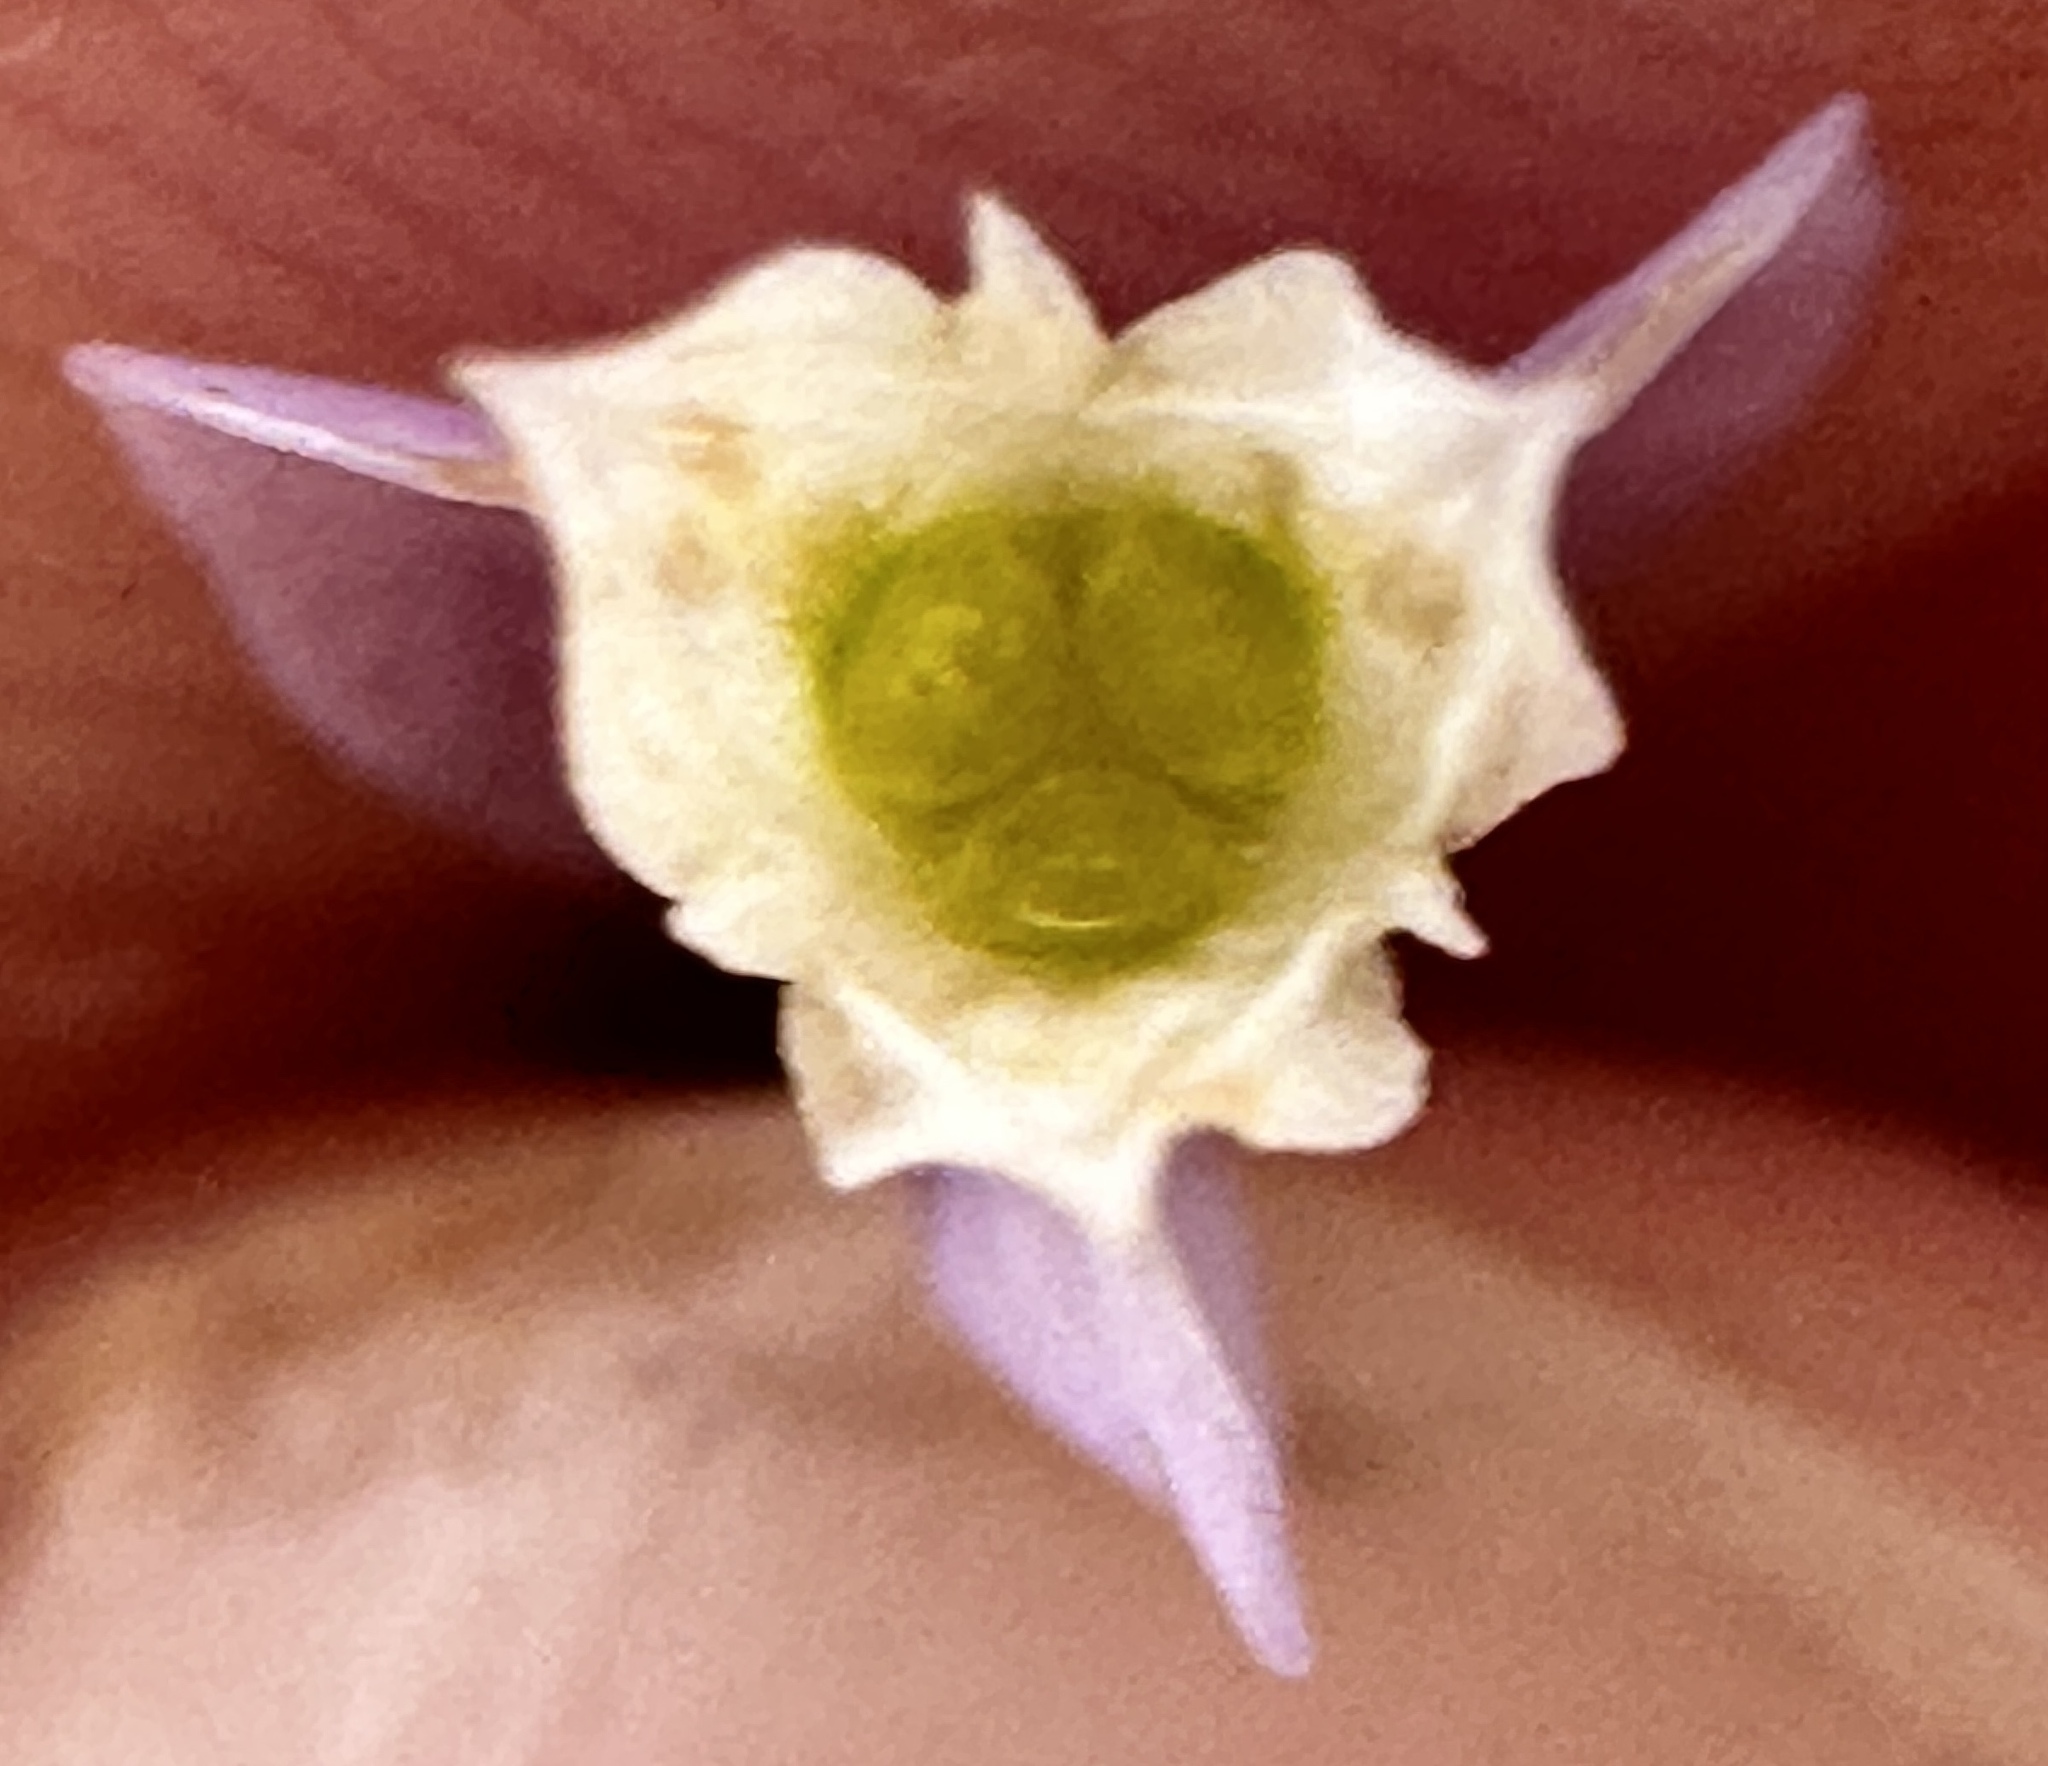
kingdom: Plantae
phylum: Tracheophyta
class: Liliopsida
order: Dioscoreales
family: Burmanniaceae
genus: Burmannia
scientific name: Burmannia coelestis
